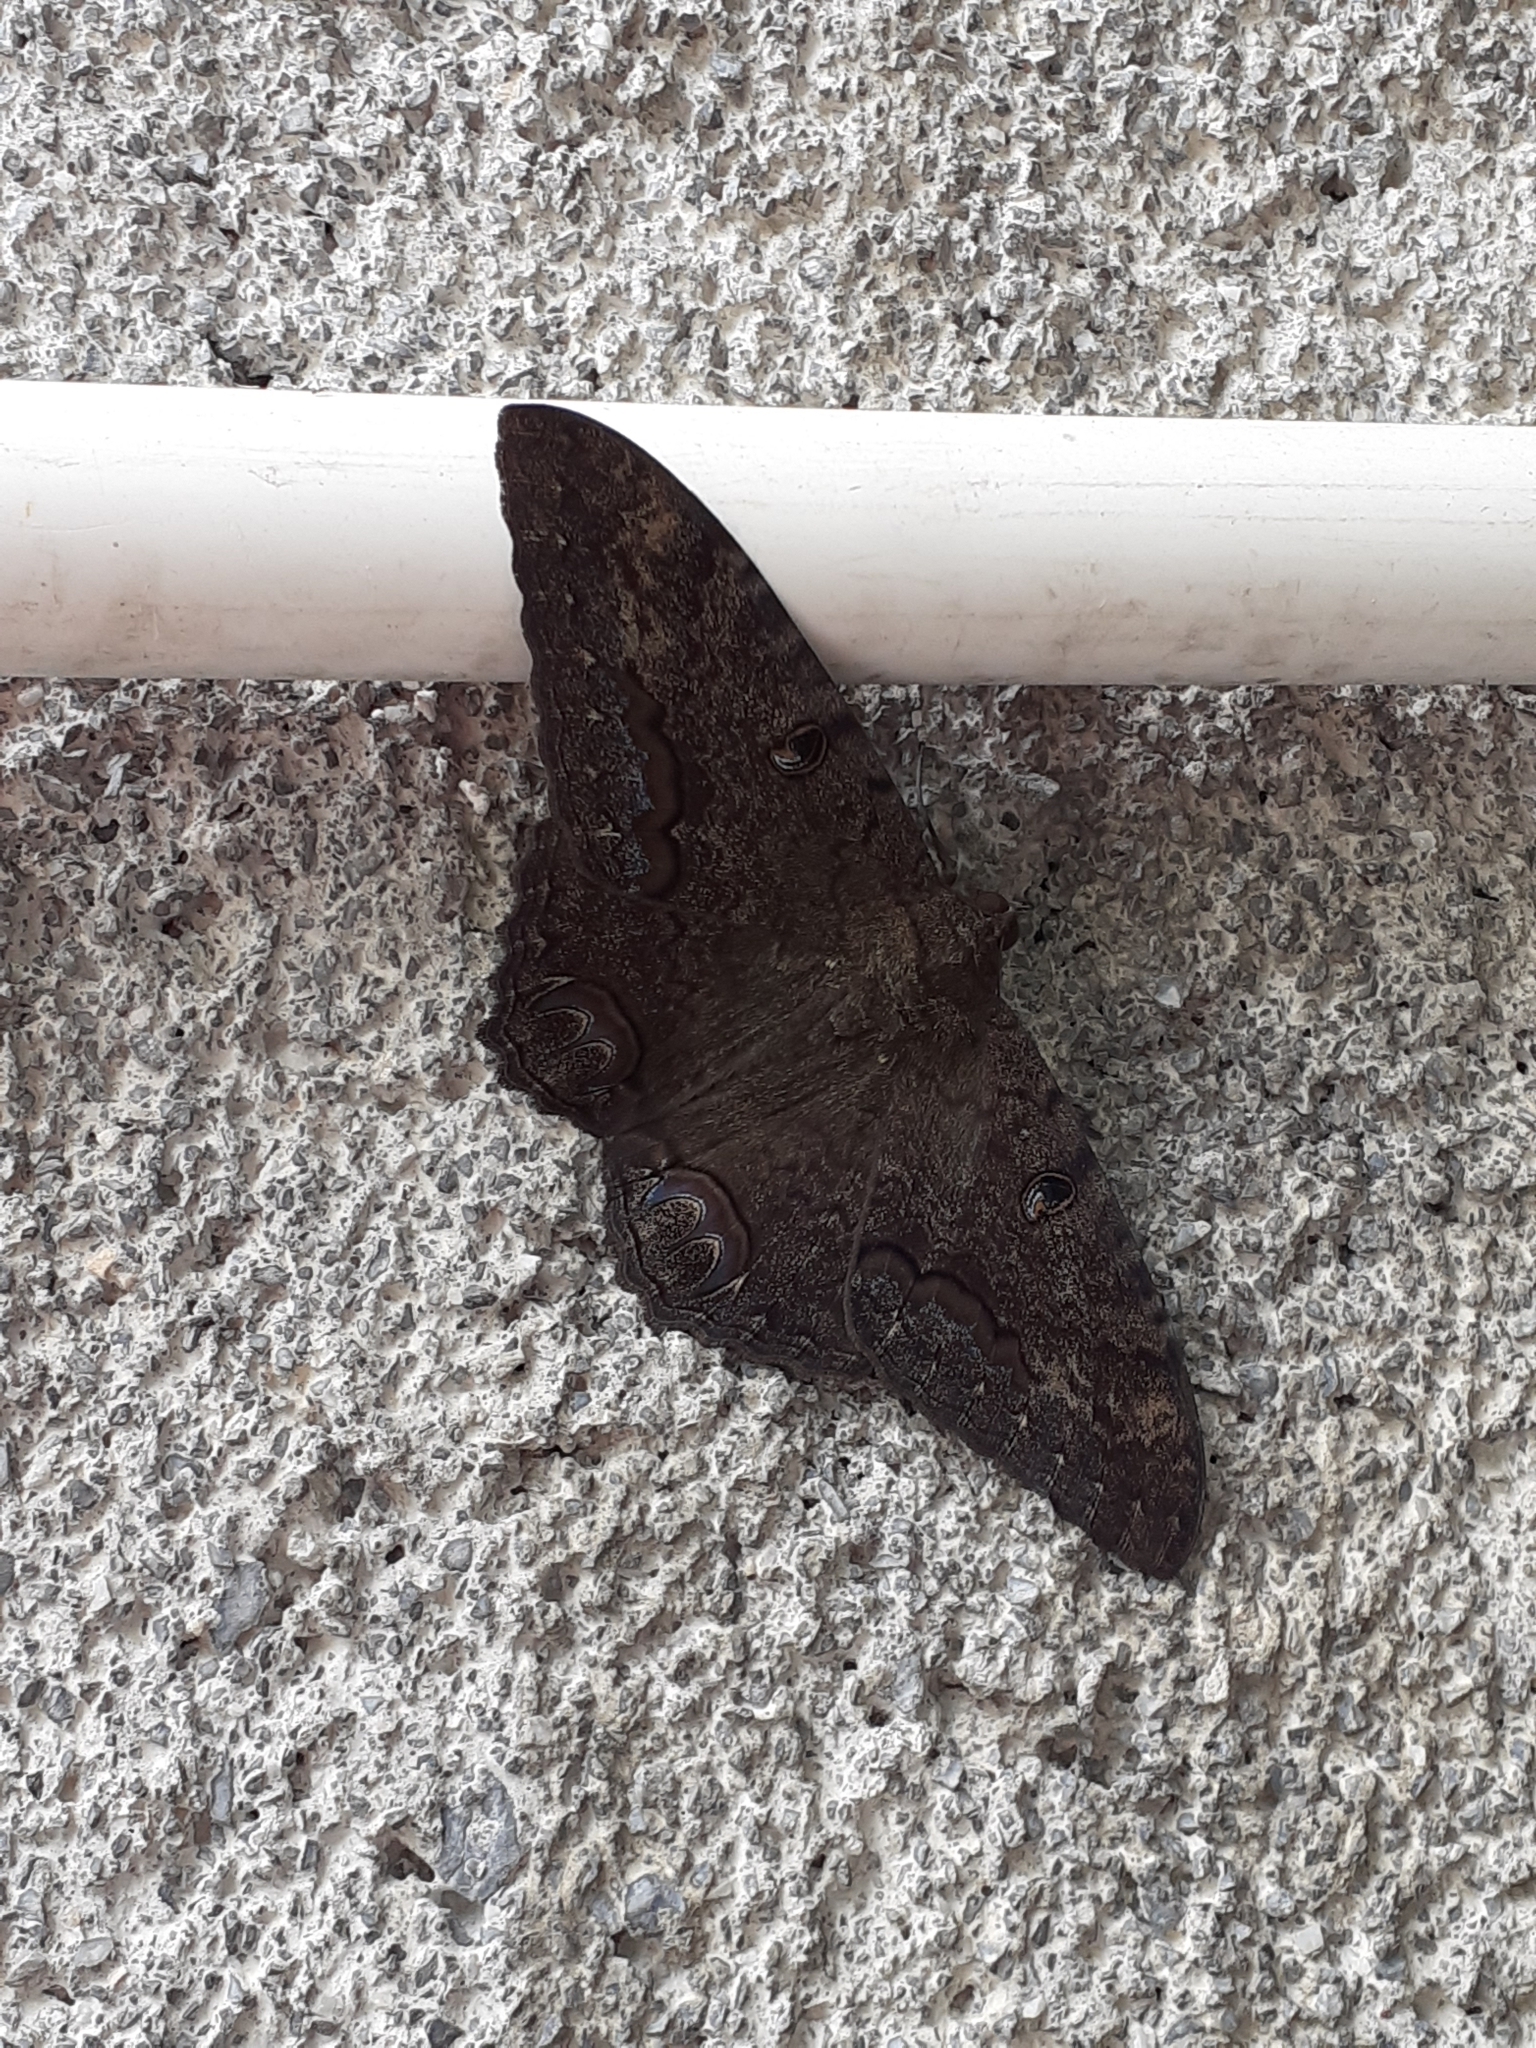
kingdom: Animalia
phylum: Arthropoda
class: Insecta
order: Lepidoptera
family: Erebidae
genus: Ascalapha
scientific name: Ascalapha odorata
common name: Black witch
